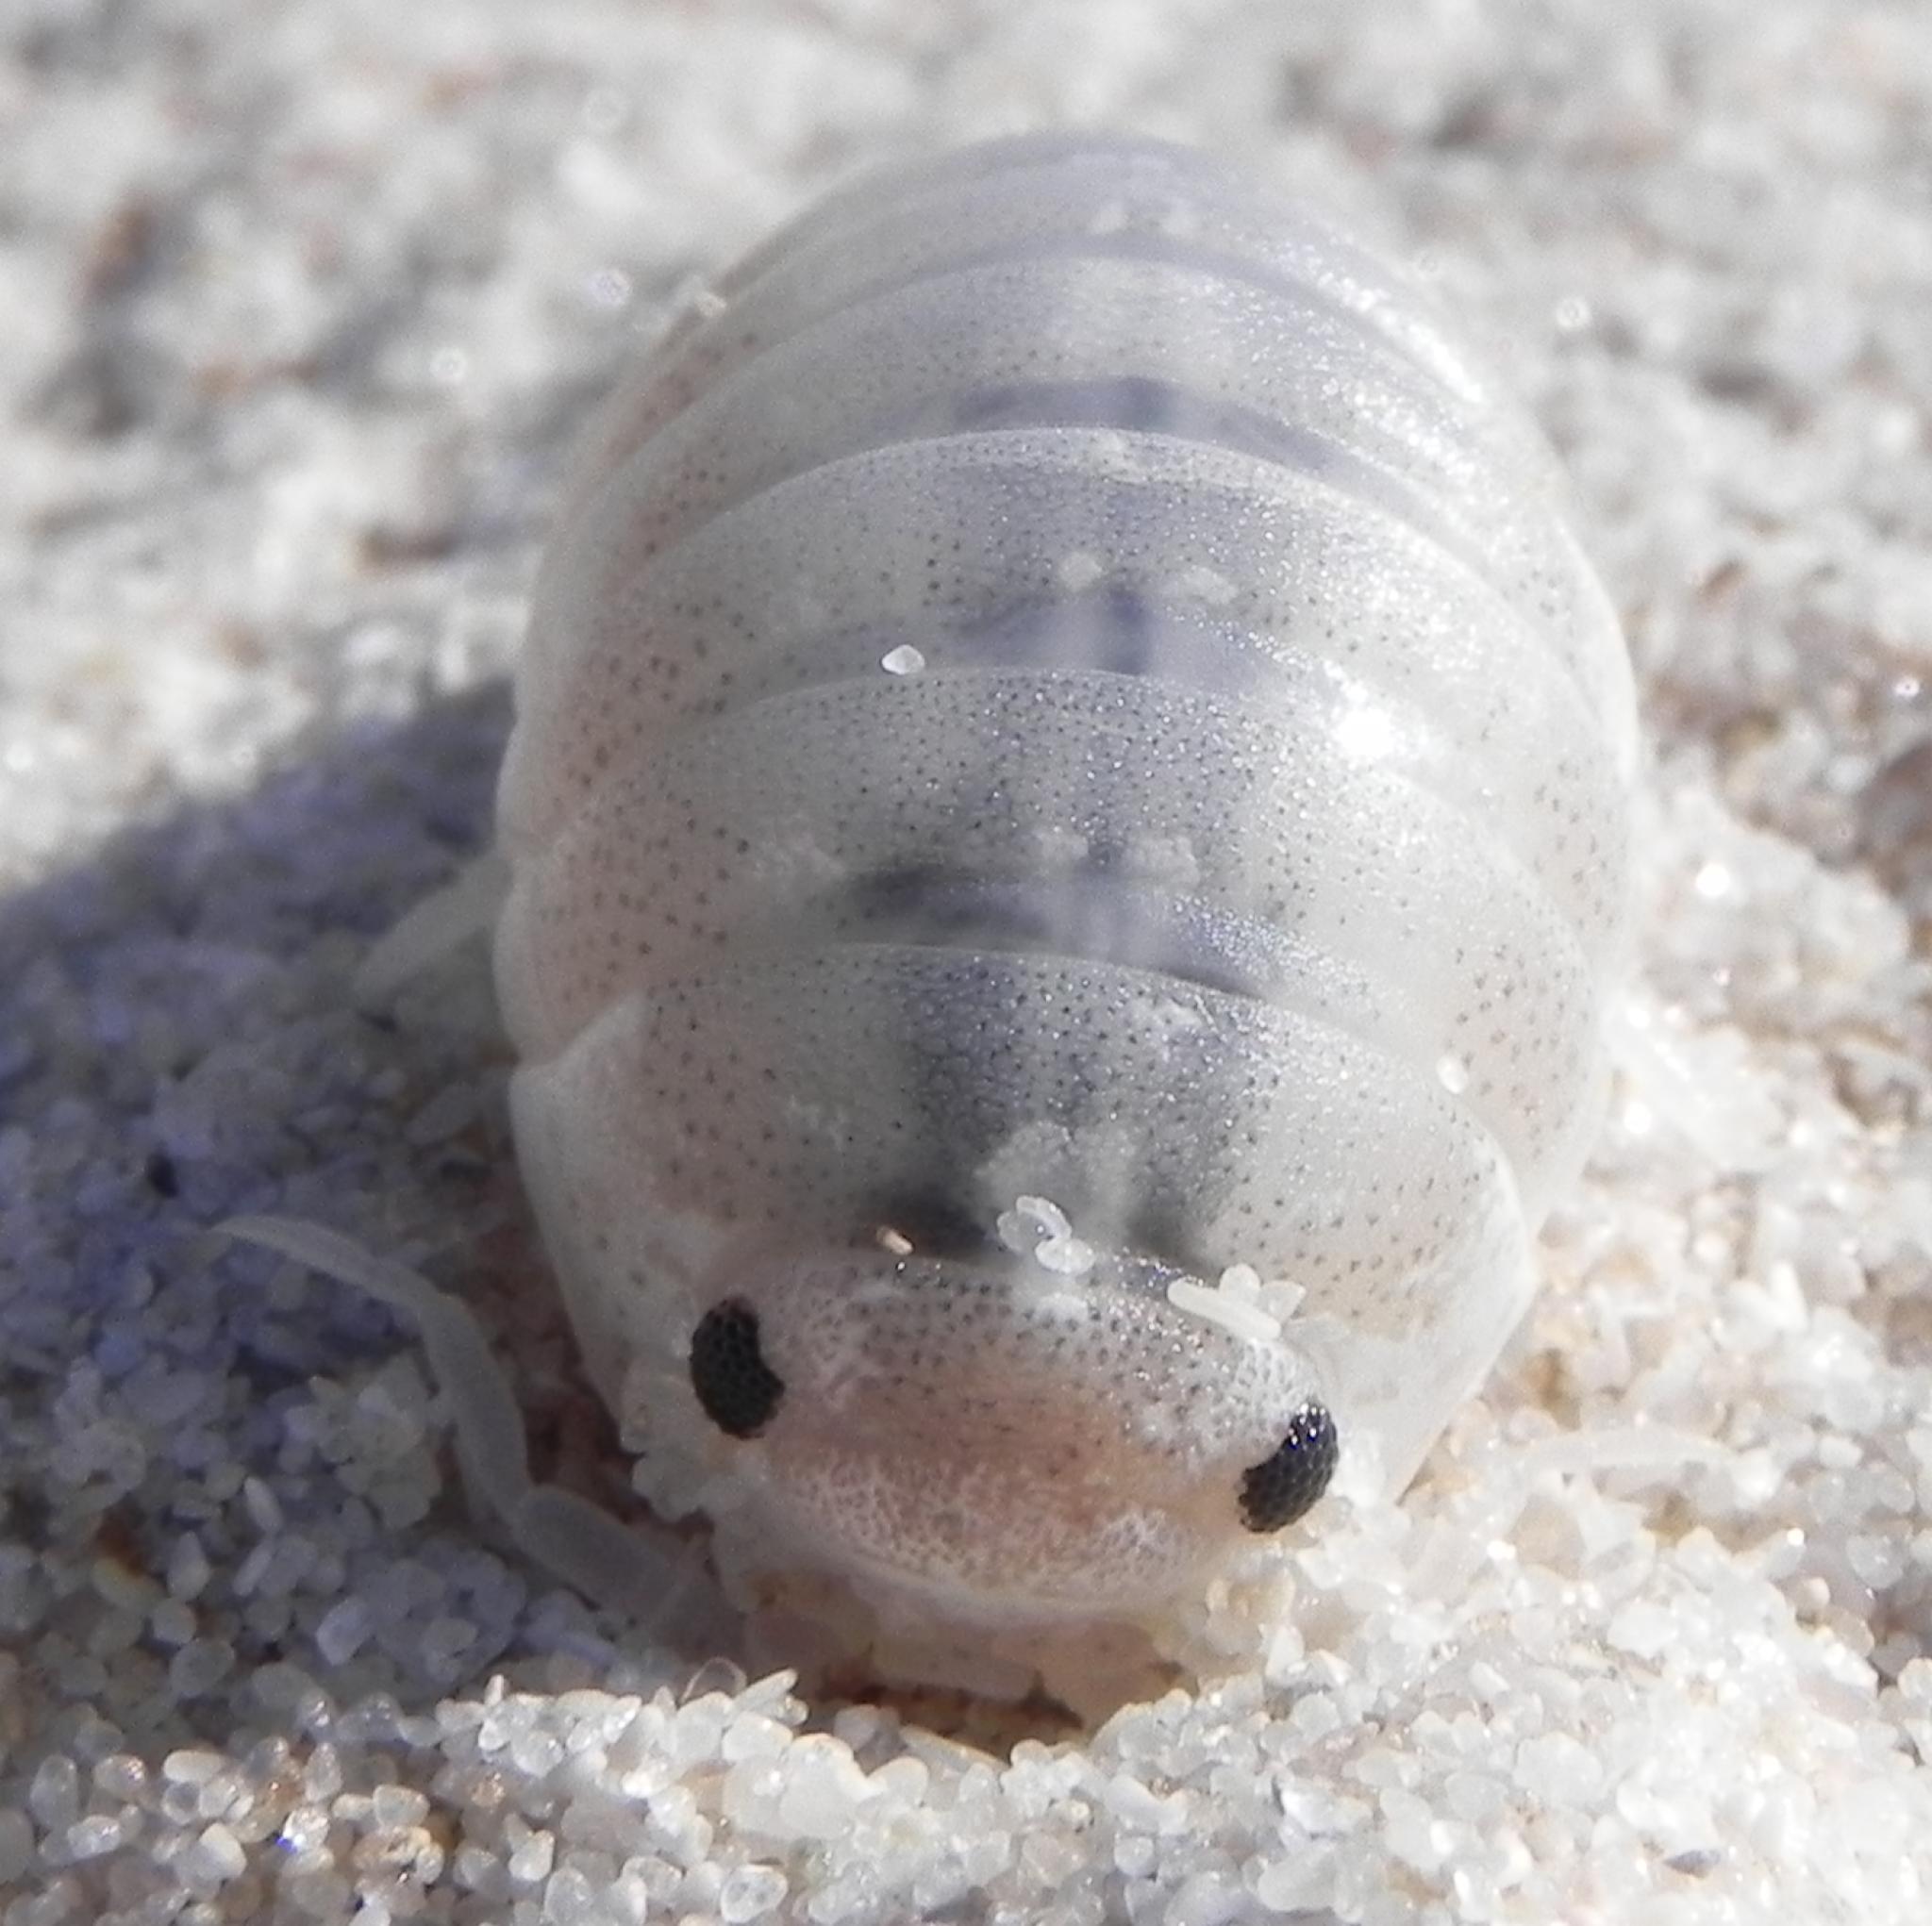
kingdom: Animalia
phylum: Arthropoda
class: Malacostraca
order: Isopoda
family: Tylidae
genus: Tylos
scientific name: Tylos granulatus
